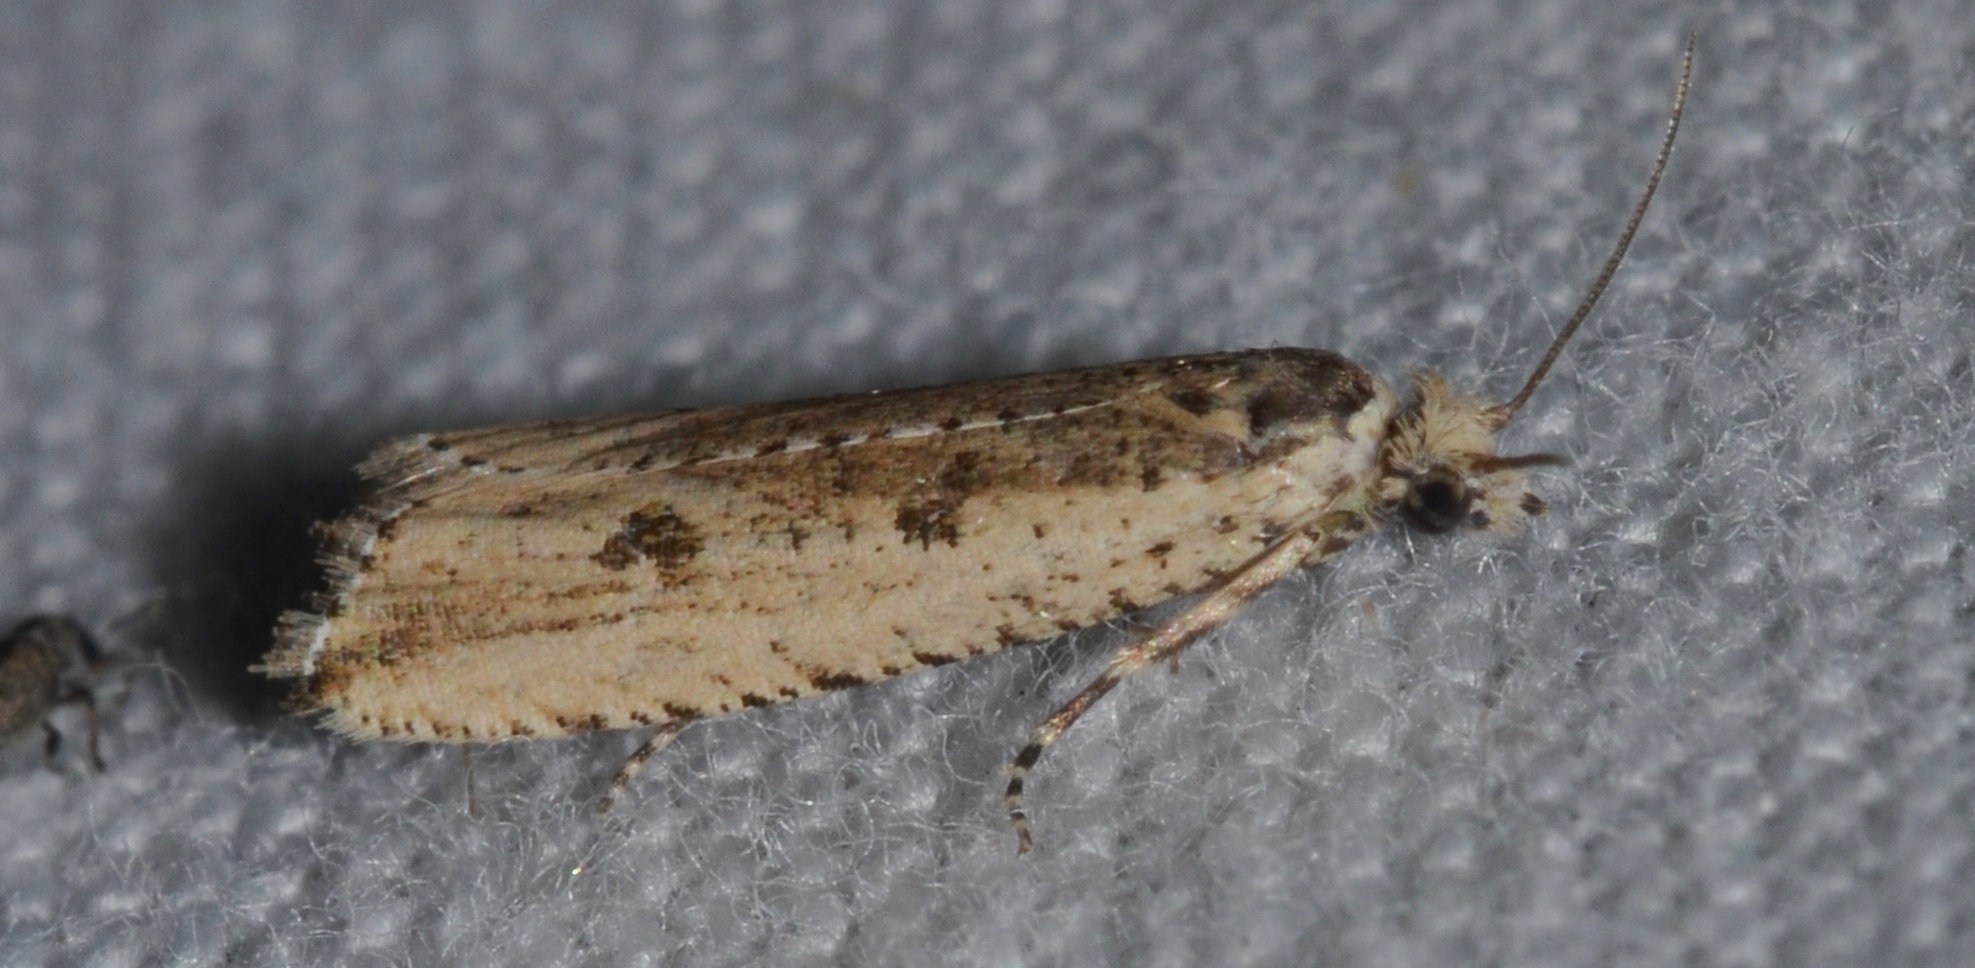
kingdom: Animalia
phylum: Arthropoda
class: Insecta
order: Lepidoptera
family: Tortricidae
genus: Bactra
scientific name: Bactra verutana
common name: Javelin moth
